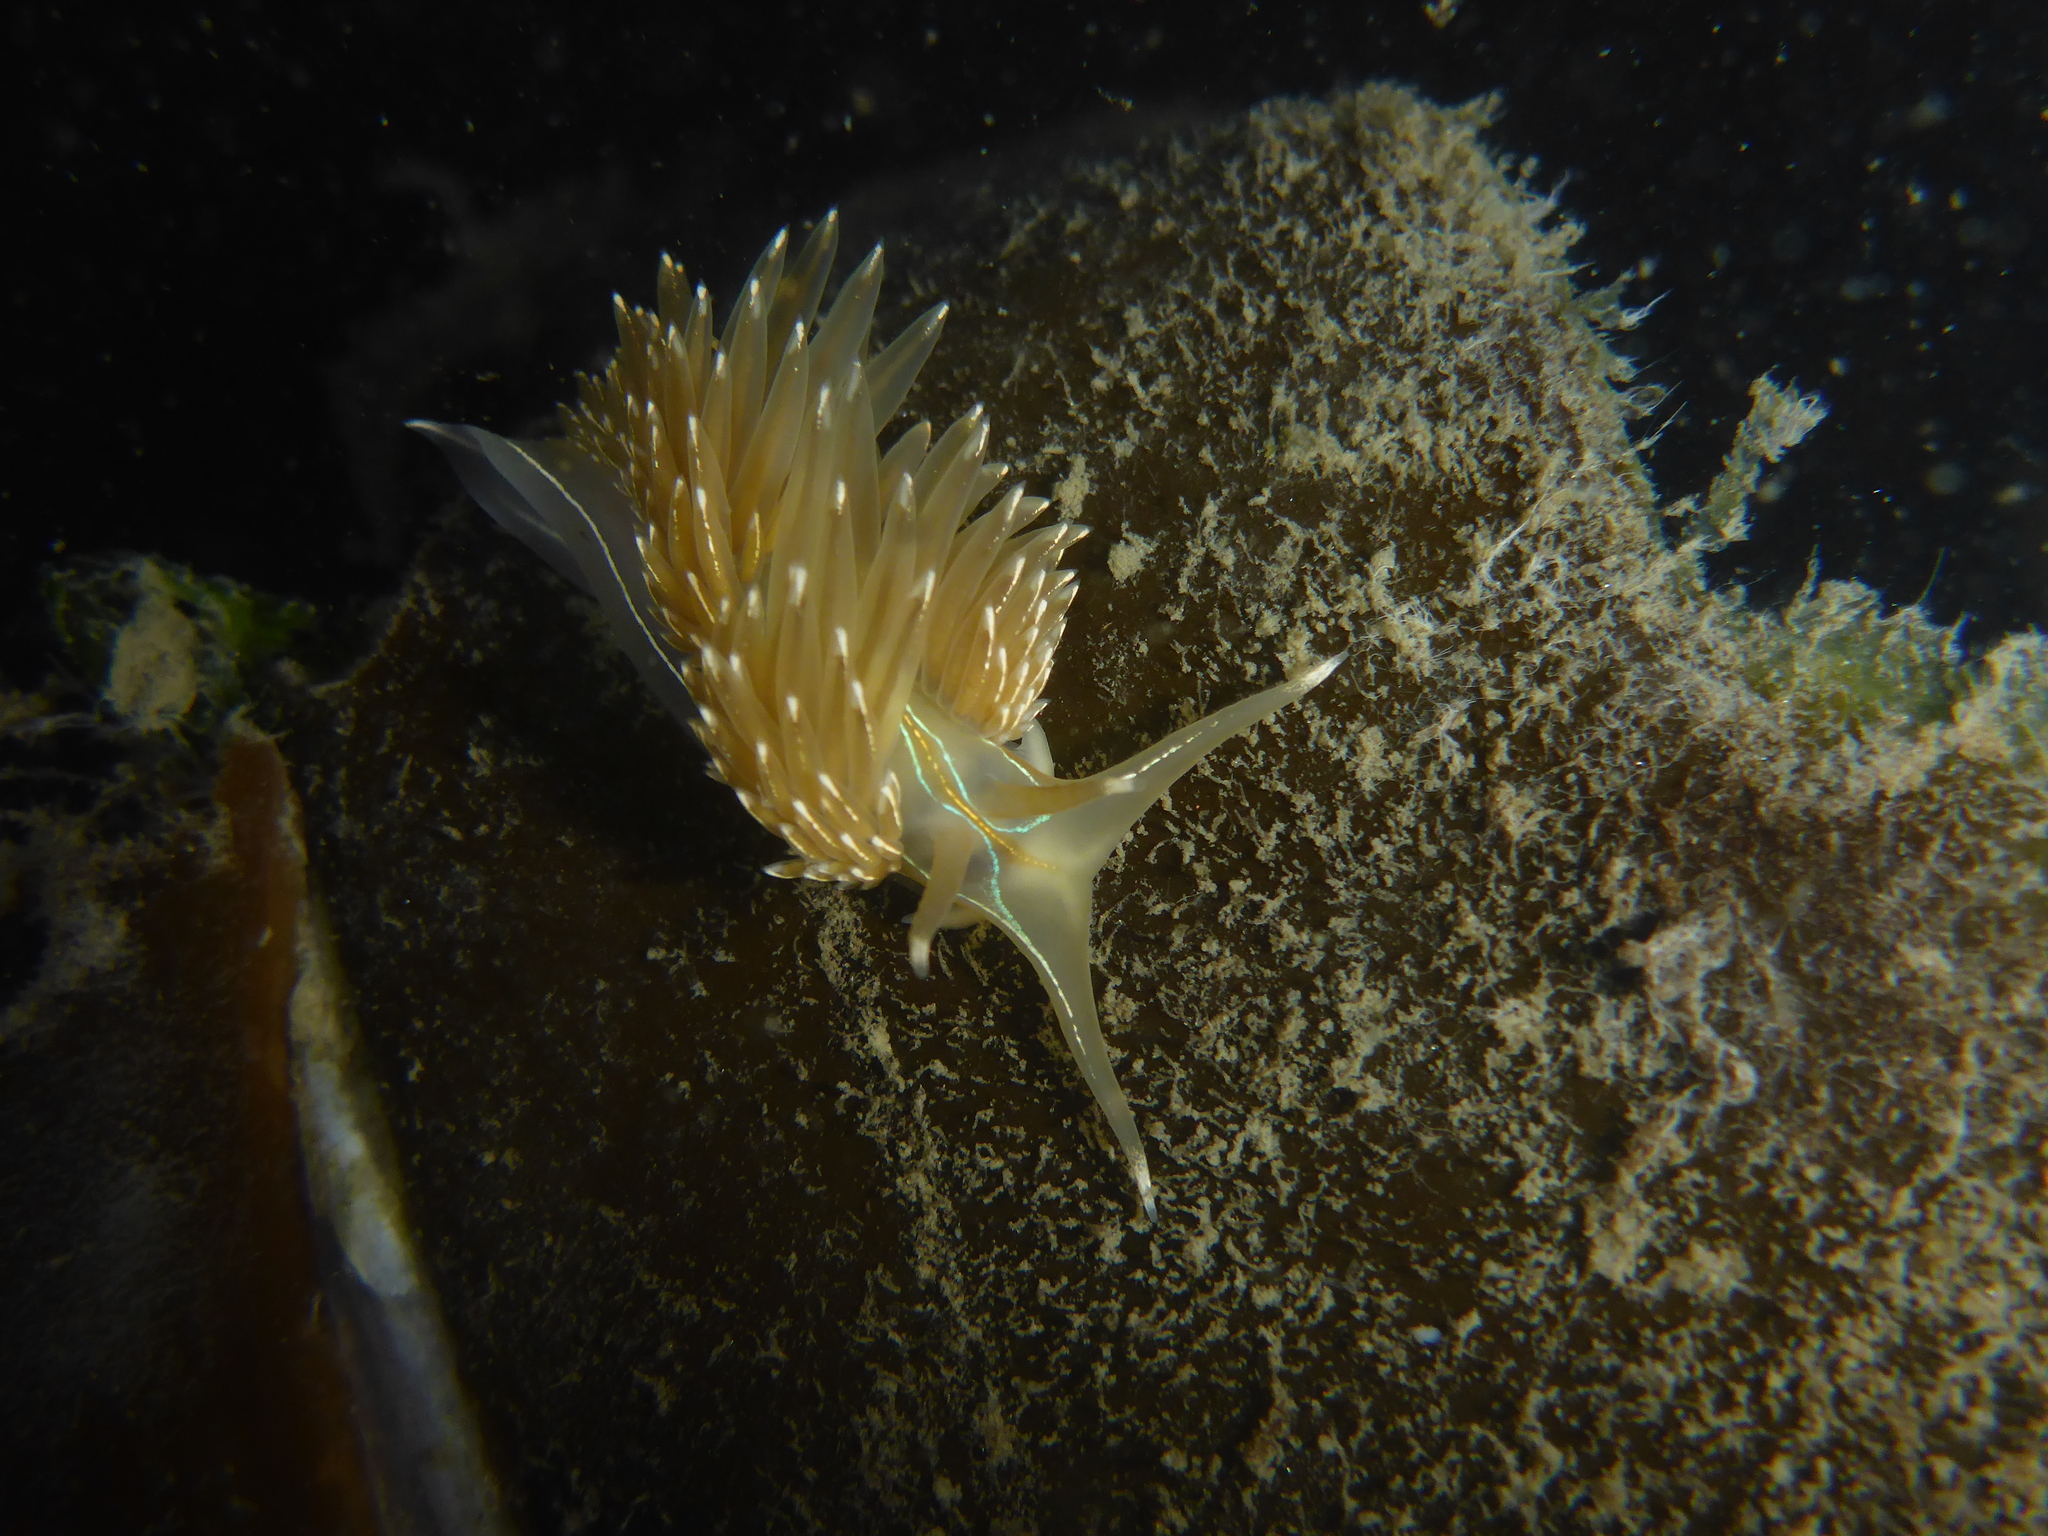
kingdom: Animalia
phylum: Mollusca
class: Gastropoda
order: Nudibranchia
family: Myrrhinidae
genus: Hermissenda
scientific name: Hermissenda crassicornis
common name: Hermissenda
